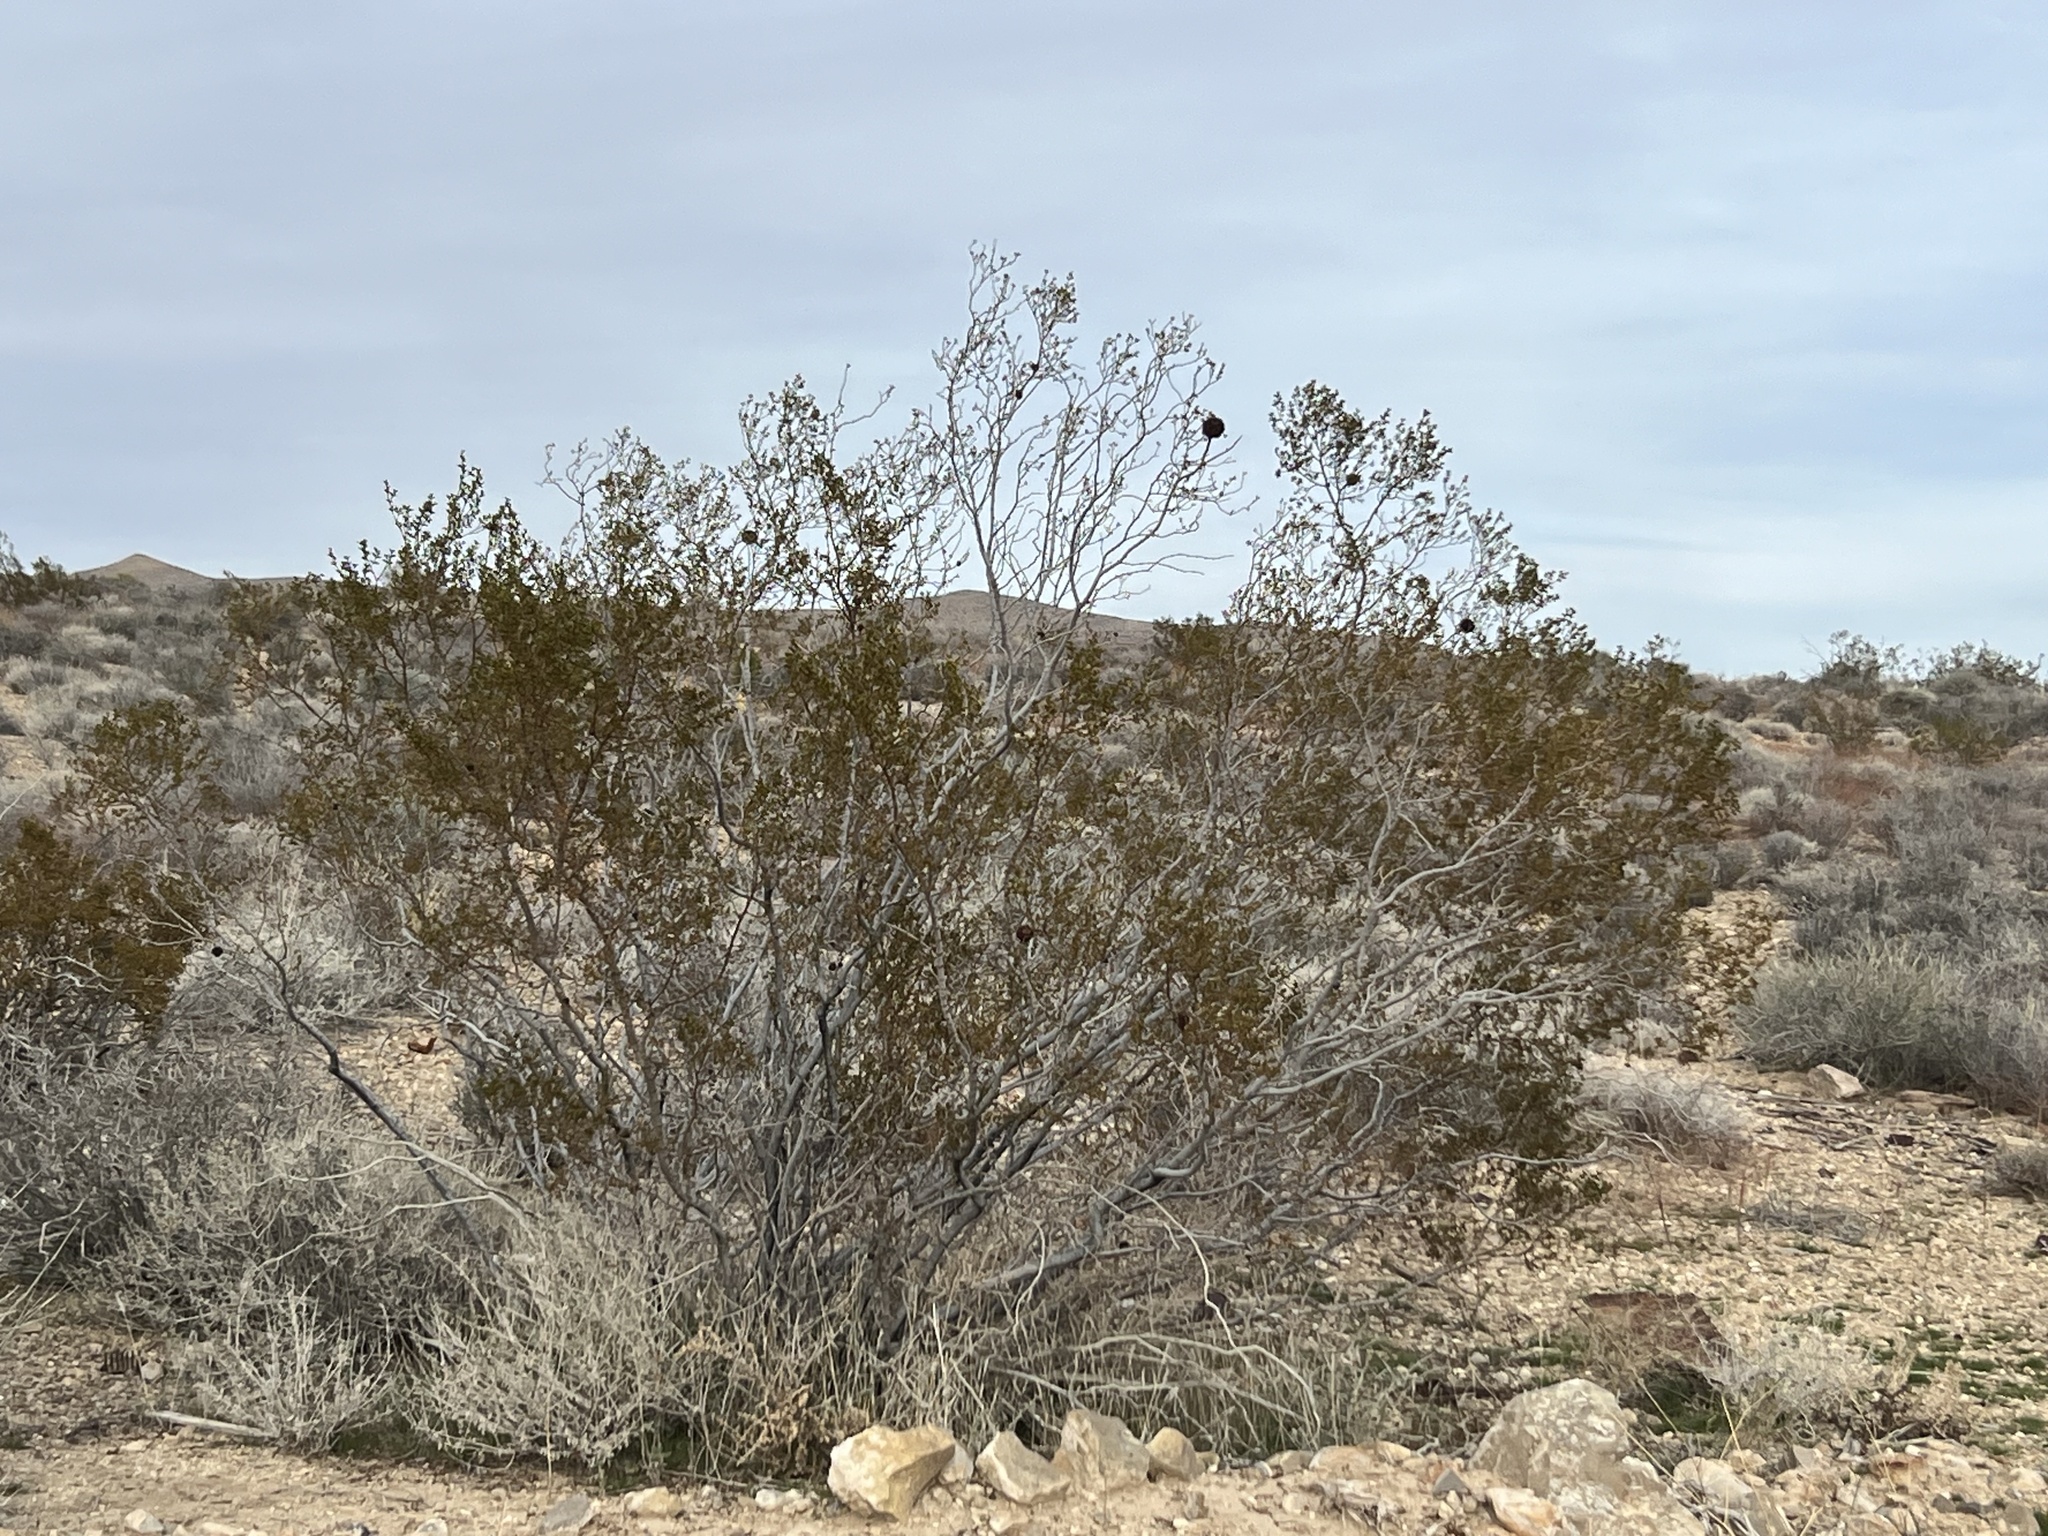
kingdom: Plantae
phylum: Tracheophyta
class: Magnoliopsida
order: Zygophyllales
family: Zygophyllaceae
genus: Larrea
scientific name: Larrea tridentata
